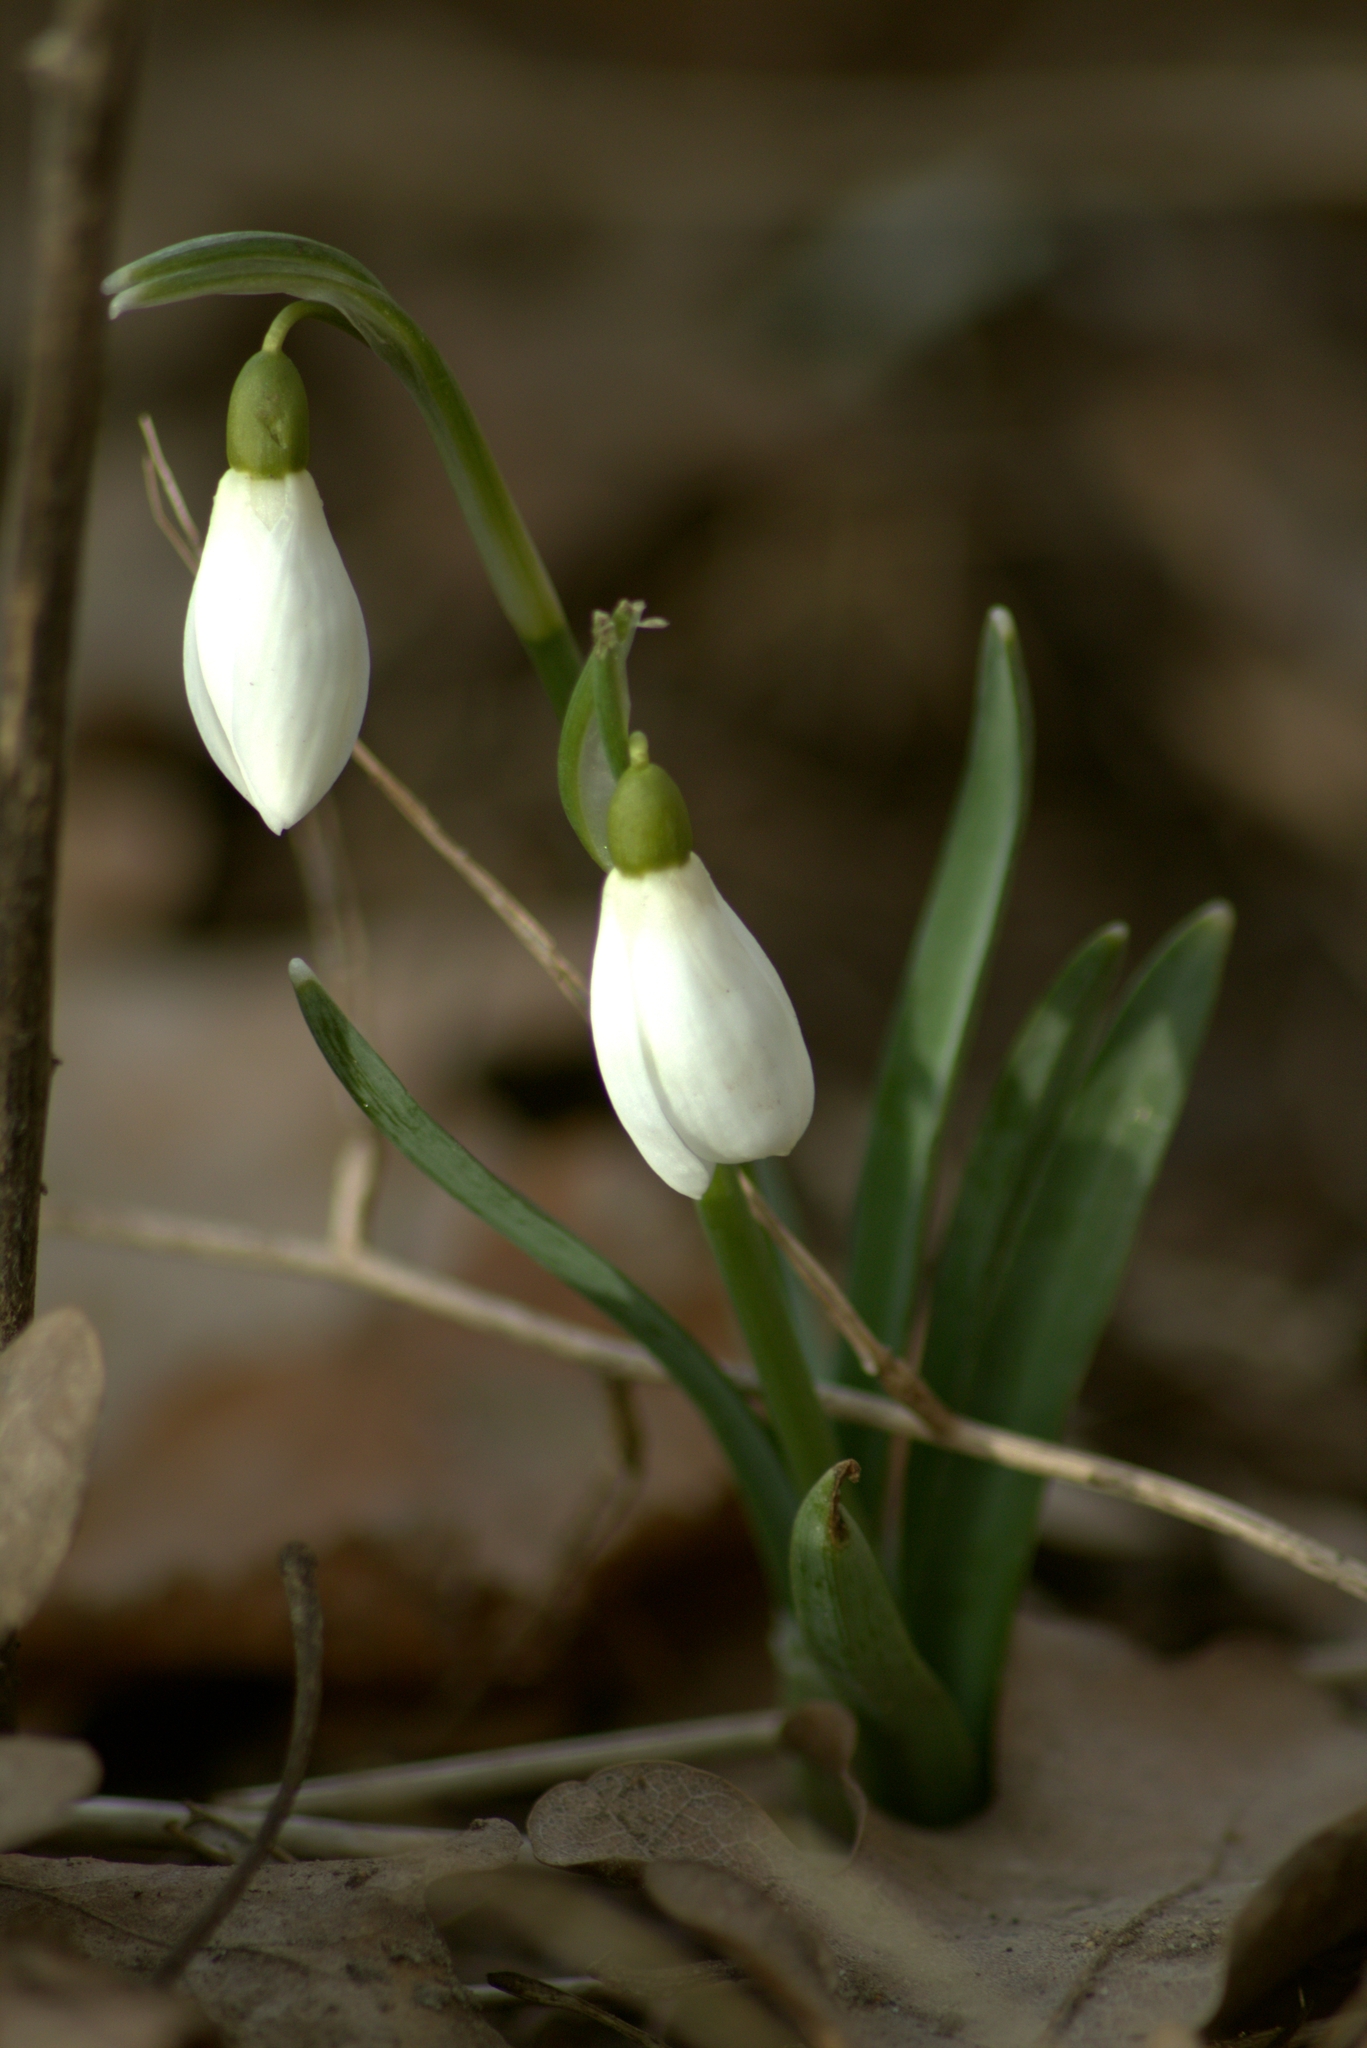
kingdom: Plantae
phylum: Tracheophyta
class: Liliopsida
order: Asparagales
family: Amaryllidaceae
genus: Galanthus
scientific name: Galanthus nivalis
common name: Snowdrop
